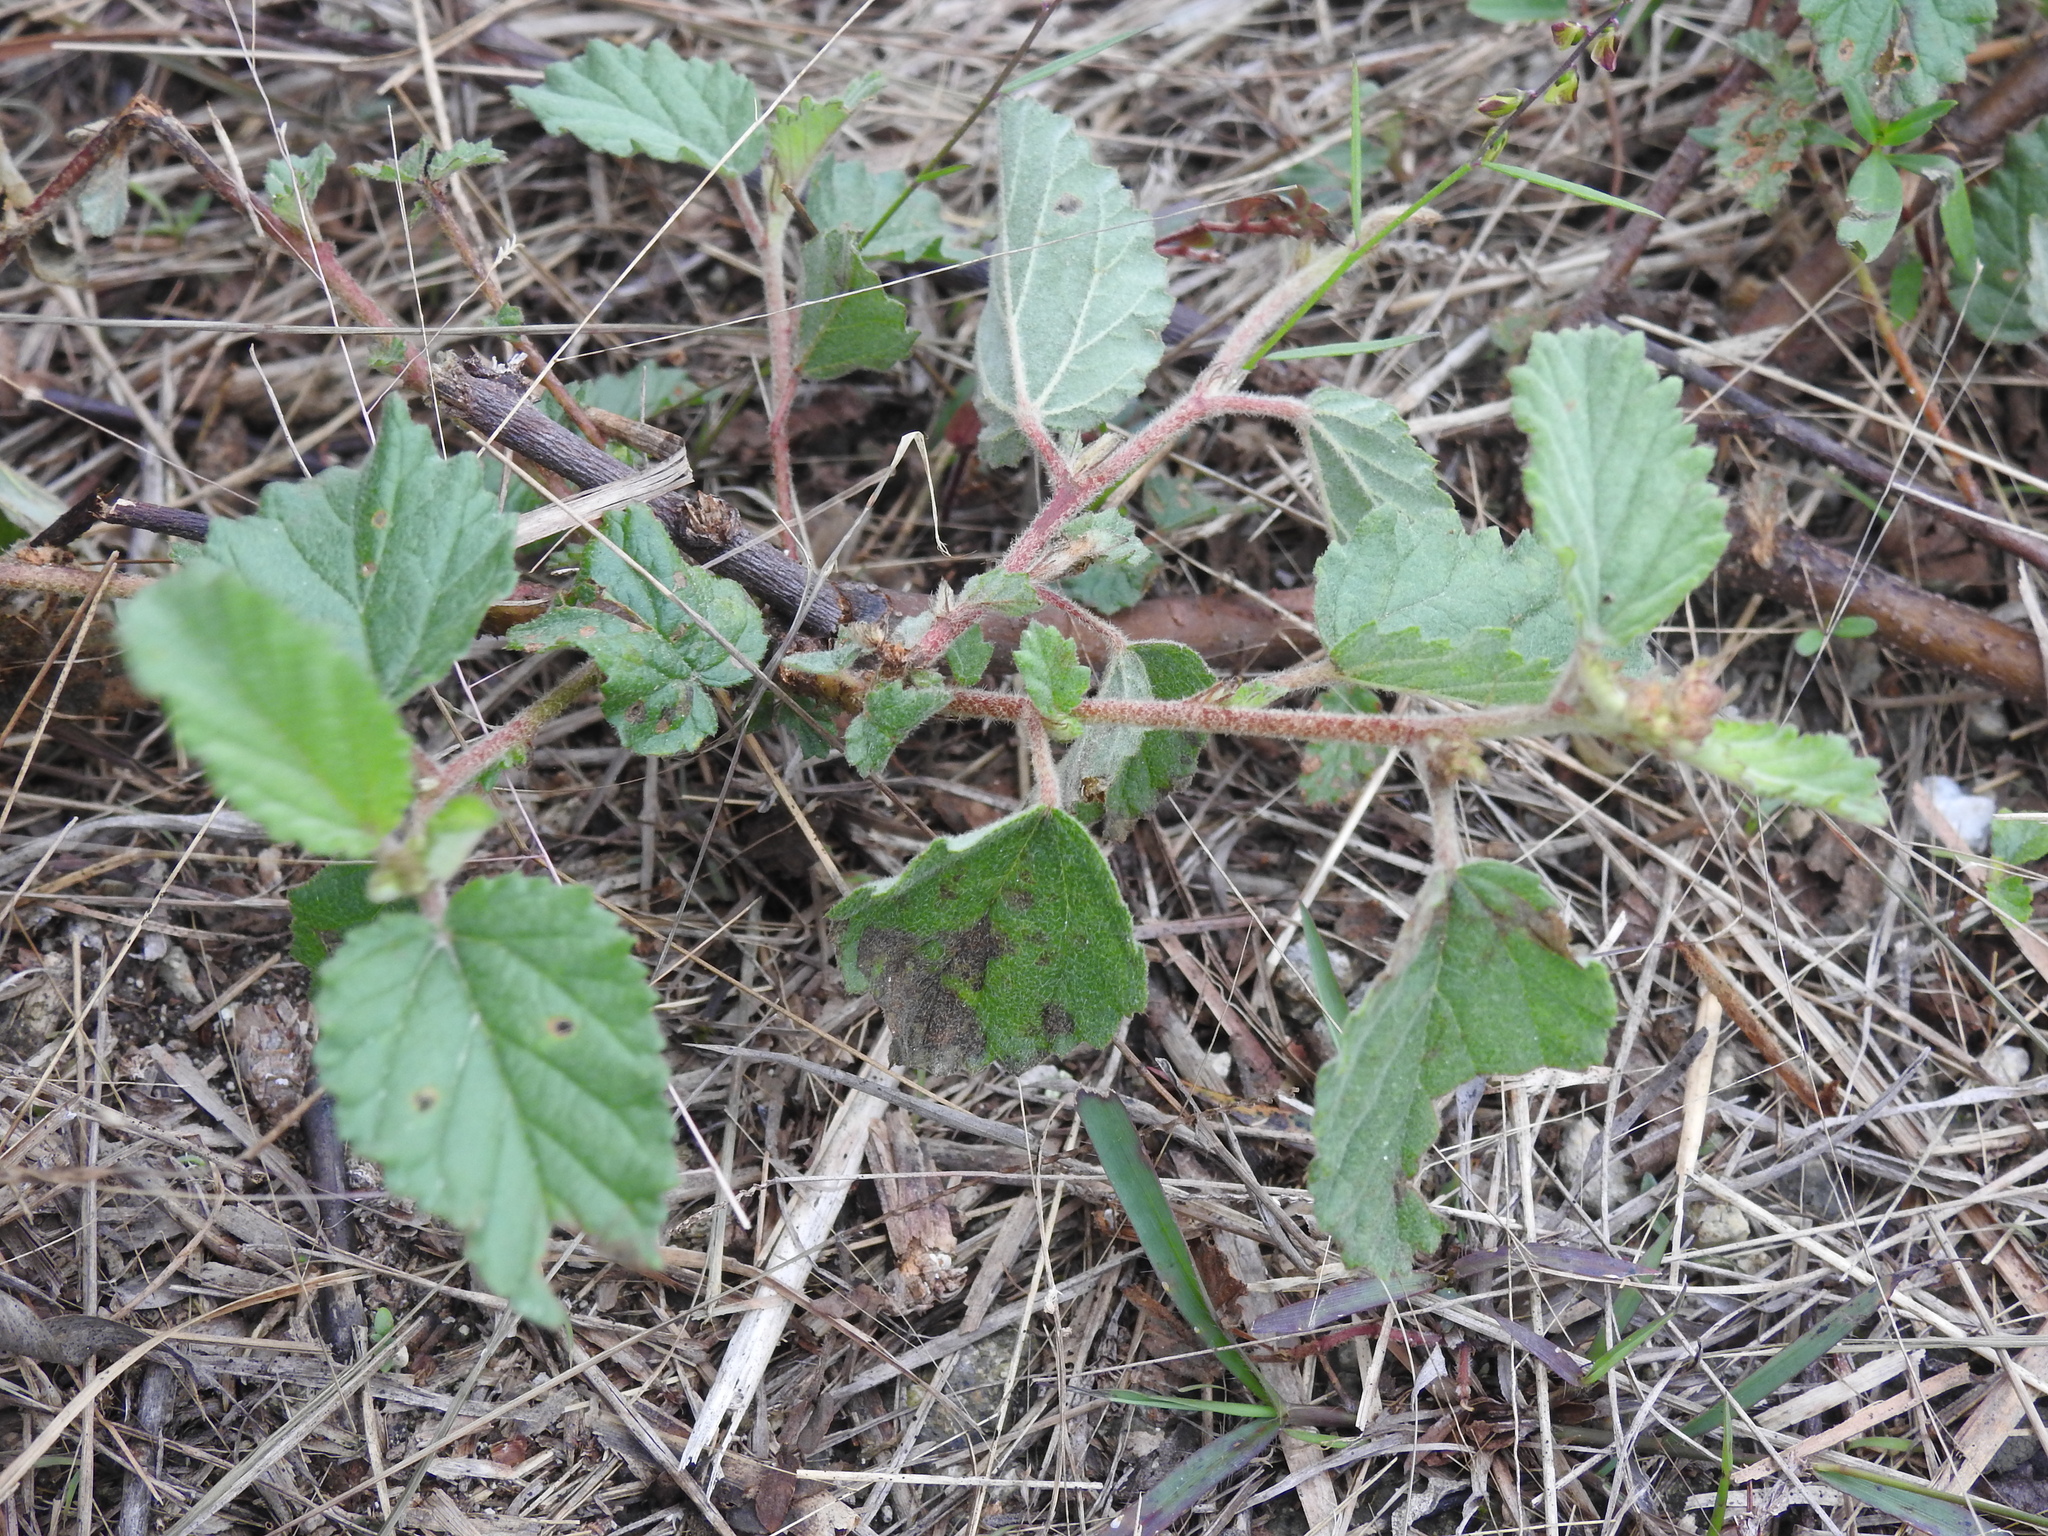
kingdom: Plantae
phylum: Tracheophyta
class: Magnoliopsida
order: Malvales
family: Malvaceae
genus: Waltheria
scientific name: Waltheria indica
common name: Leather-coat
